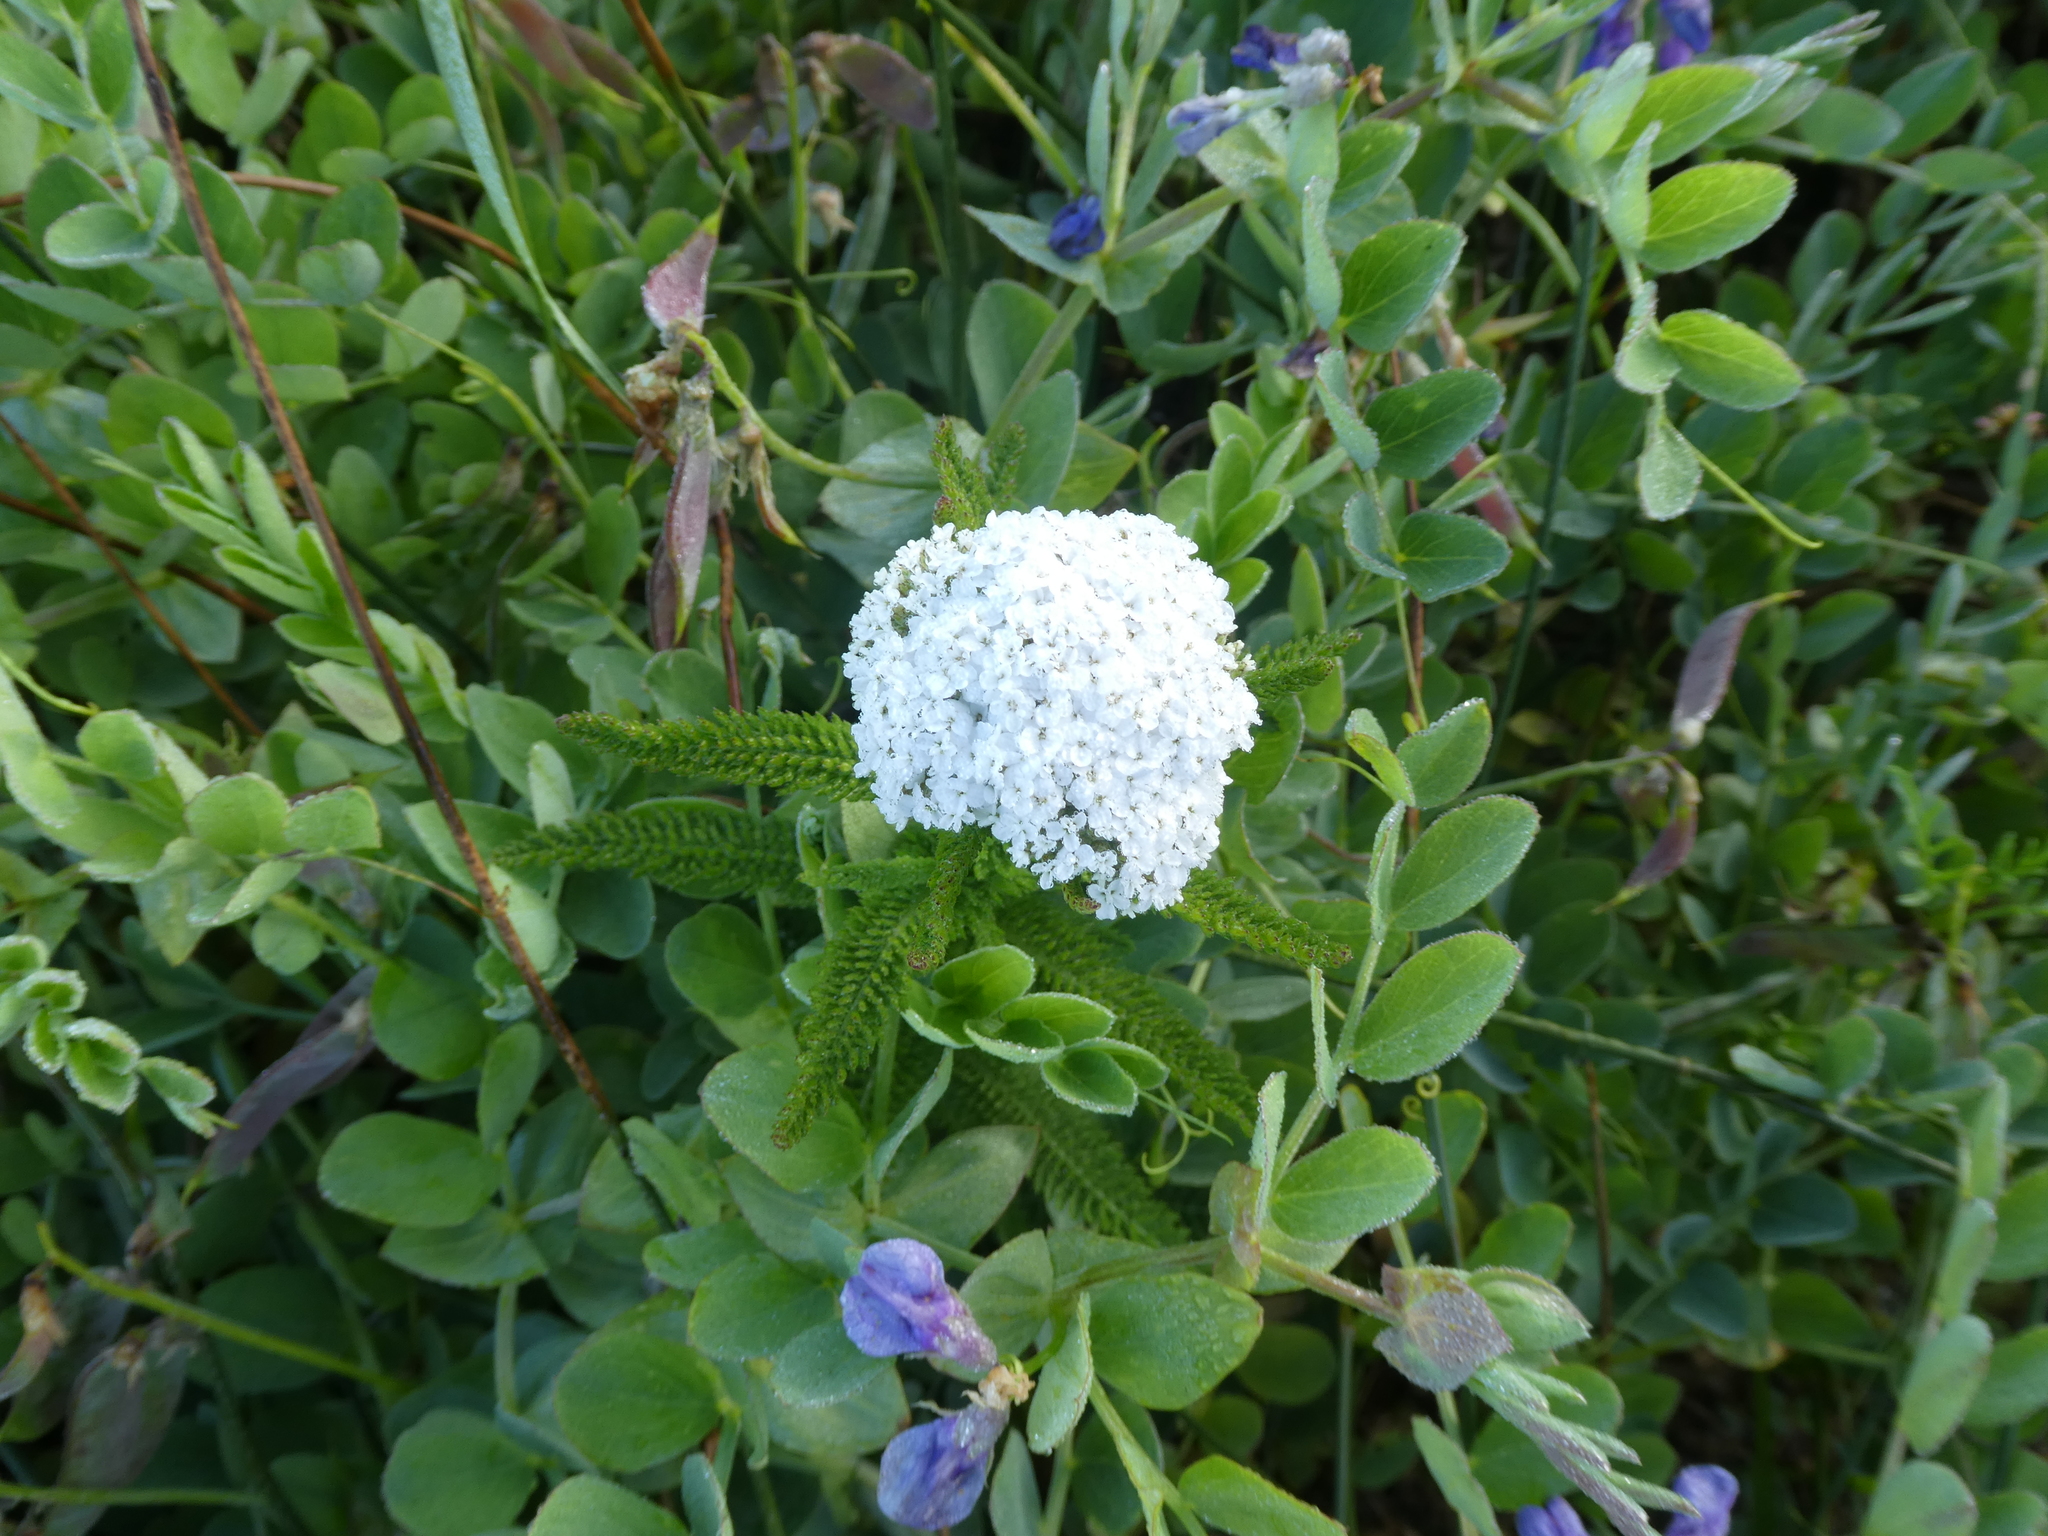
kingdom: Plantae
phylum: Tracheophyta
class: Magnoliopsida
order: Asterales
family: Asteraceae
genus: Achillea
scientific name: Achillea millefolium
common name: Yarrow
